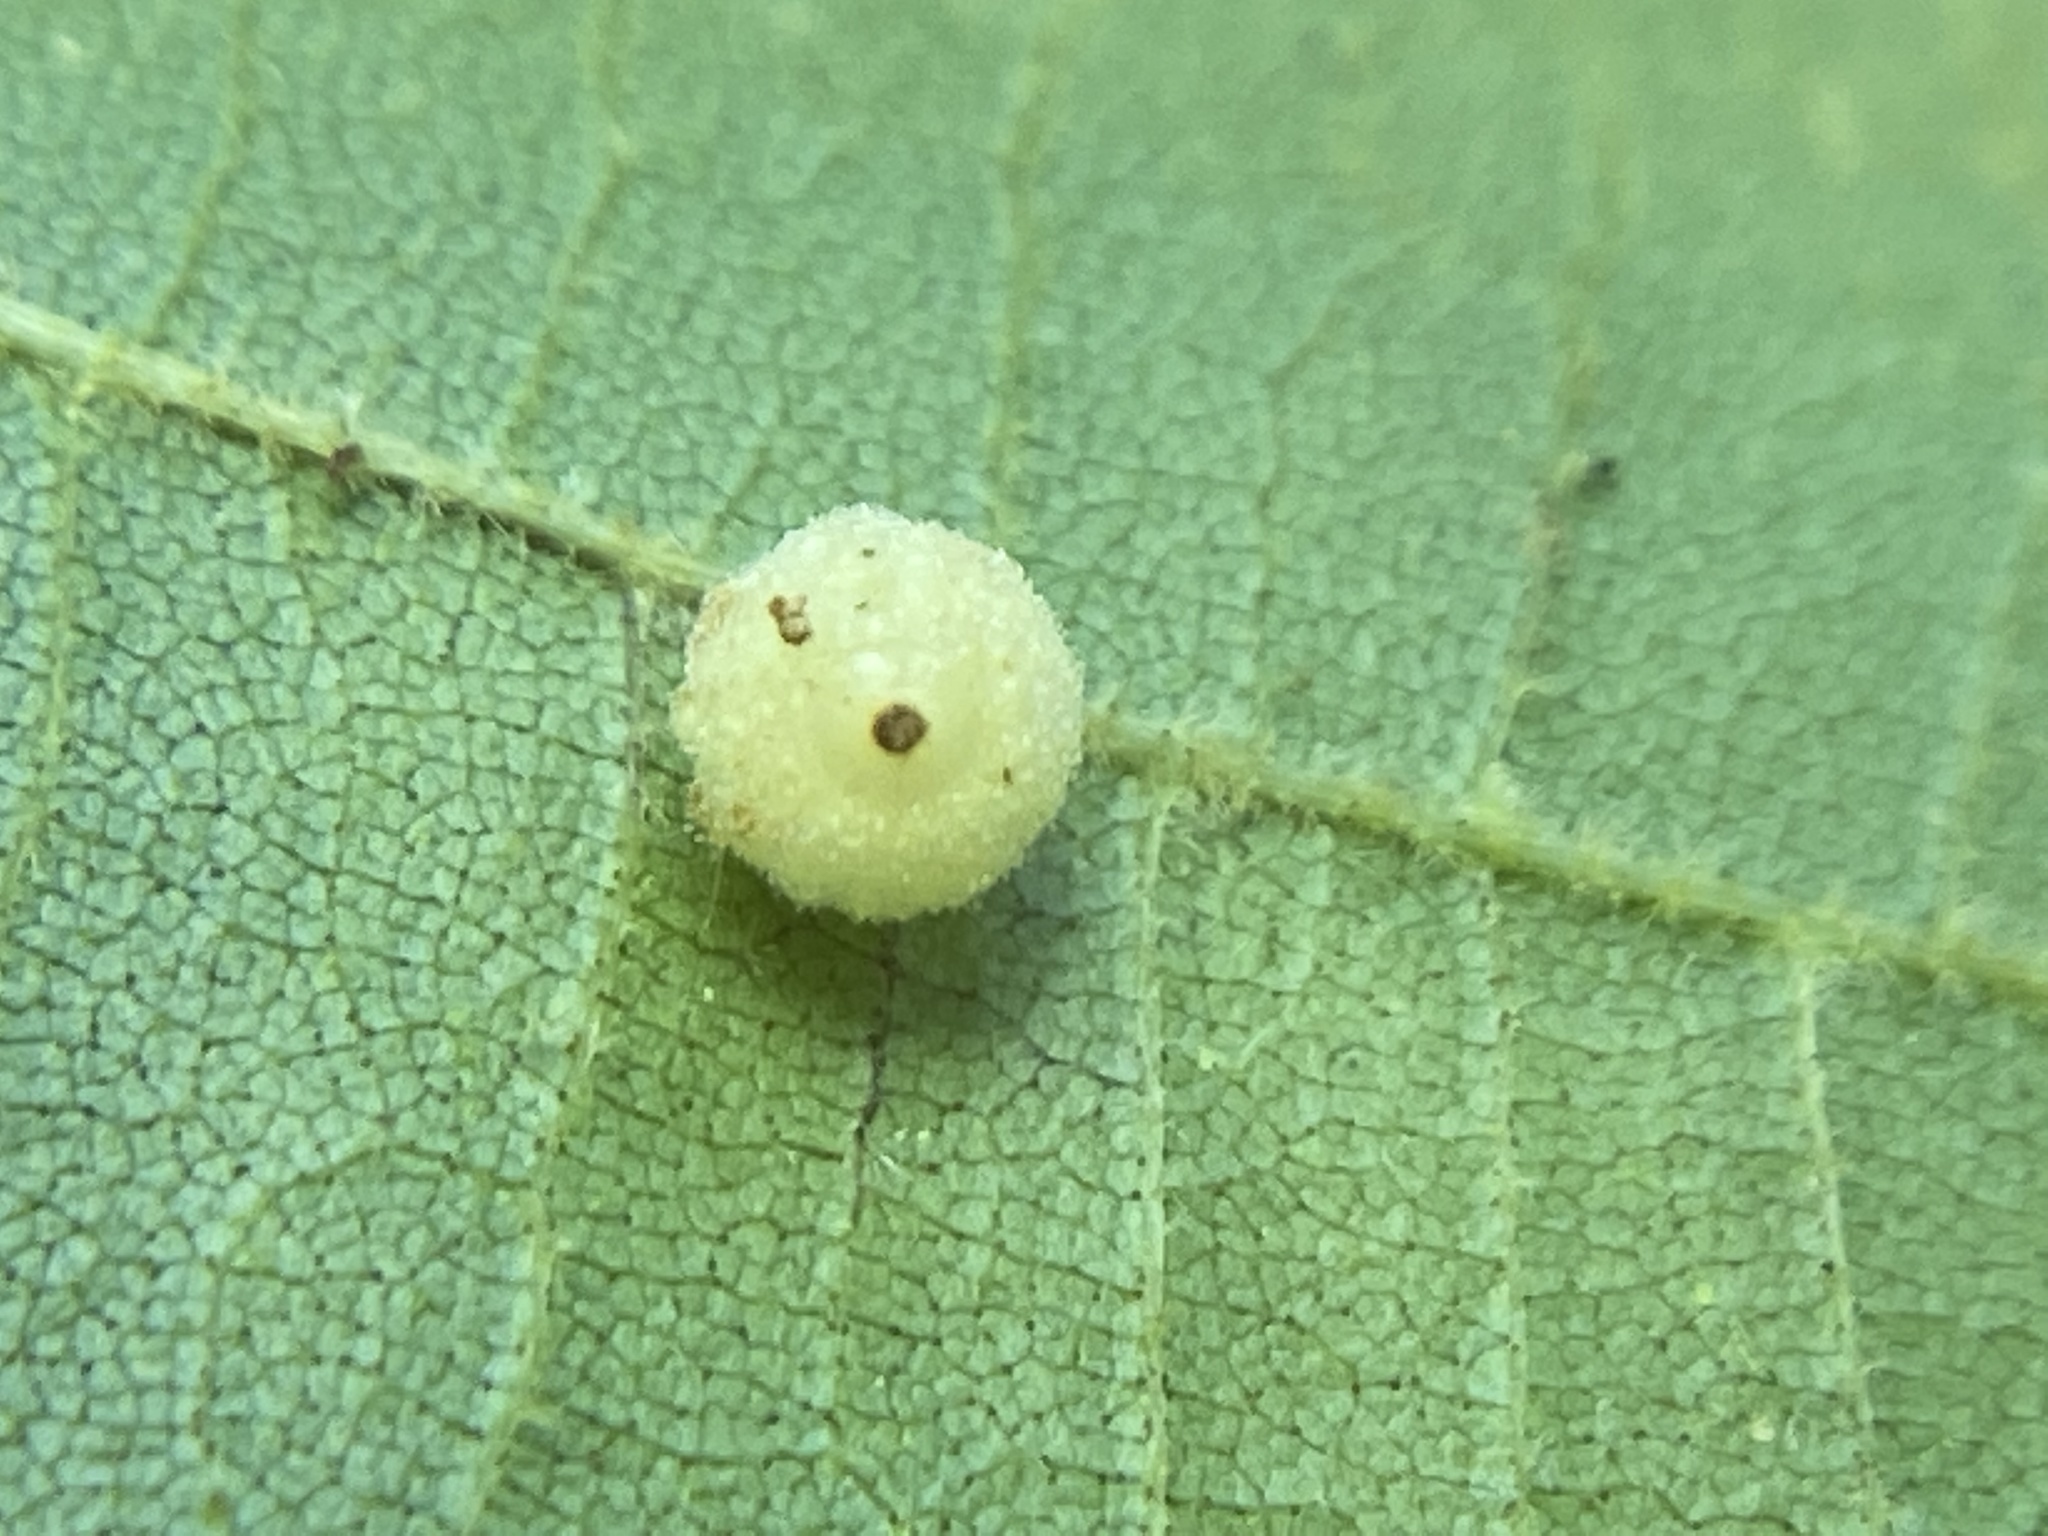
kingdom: Animalia
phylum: Arthropoda
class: Insecta
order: Diptera
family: Cecidomyiidae
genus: Caryomyia
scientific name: Caryomyia tuberidolium
